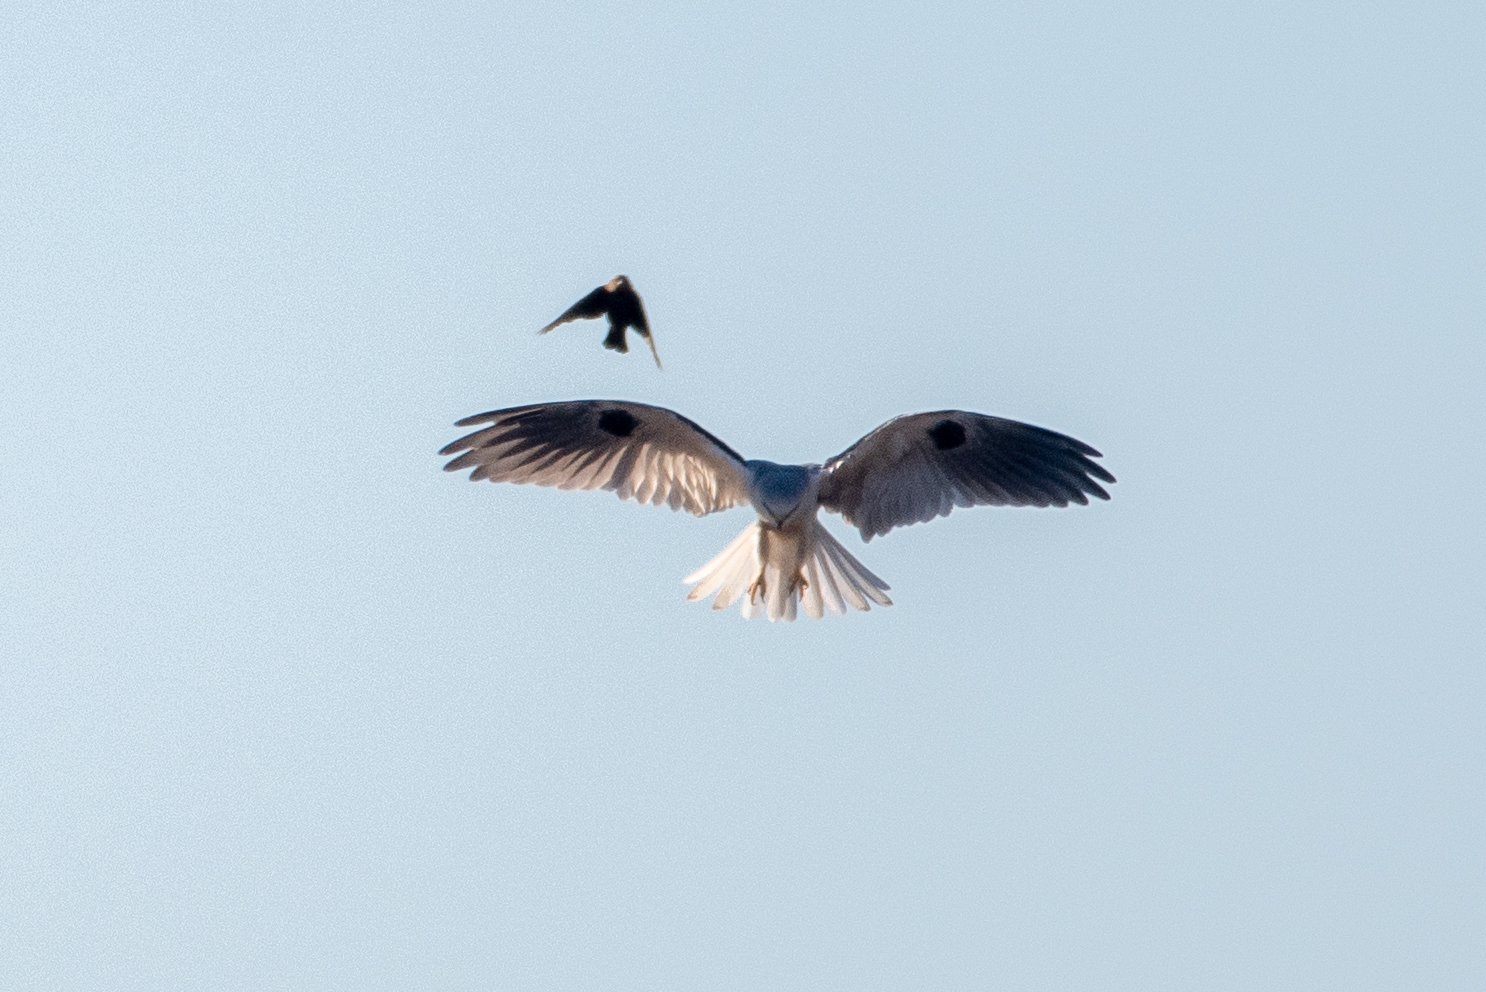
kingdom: Animalia
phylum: Chordata
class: Aves
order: Accipitriformes
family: Accipitridae
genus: Elanus
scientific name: Elanus leucurus
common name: White-tailed kite
